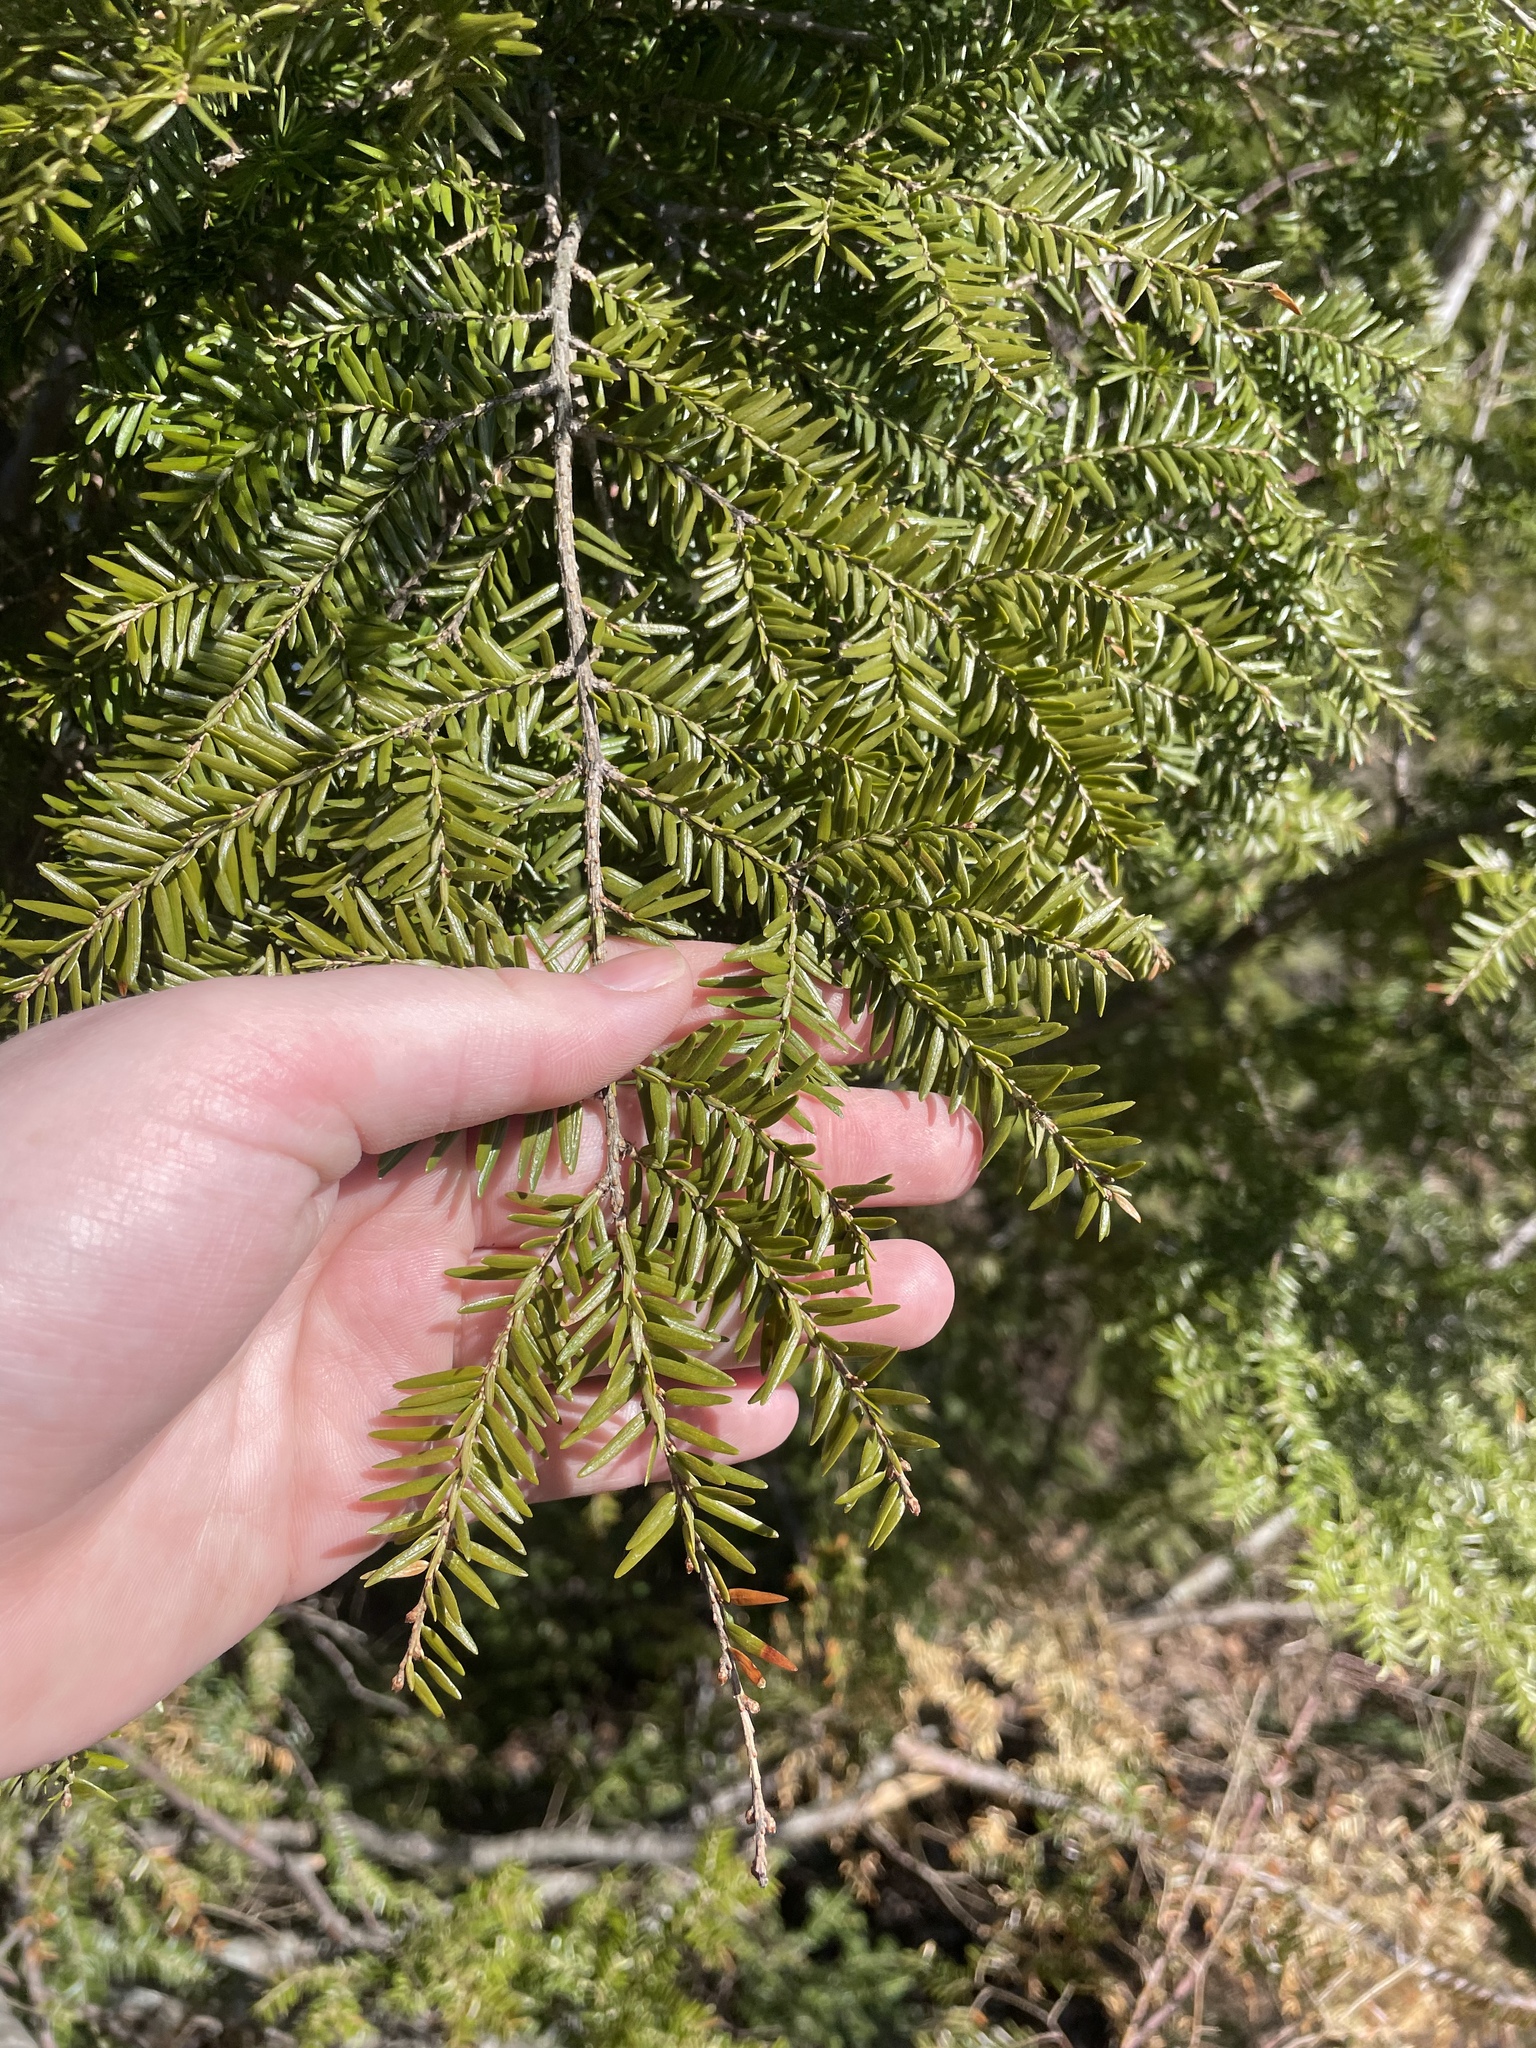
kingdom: Plantae
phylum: Tracheophyta
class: Pinopsida
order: Pinales
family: Pinaceae
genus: Tsuga
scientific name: Tsuga canadensis
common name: Eastern hemlock
